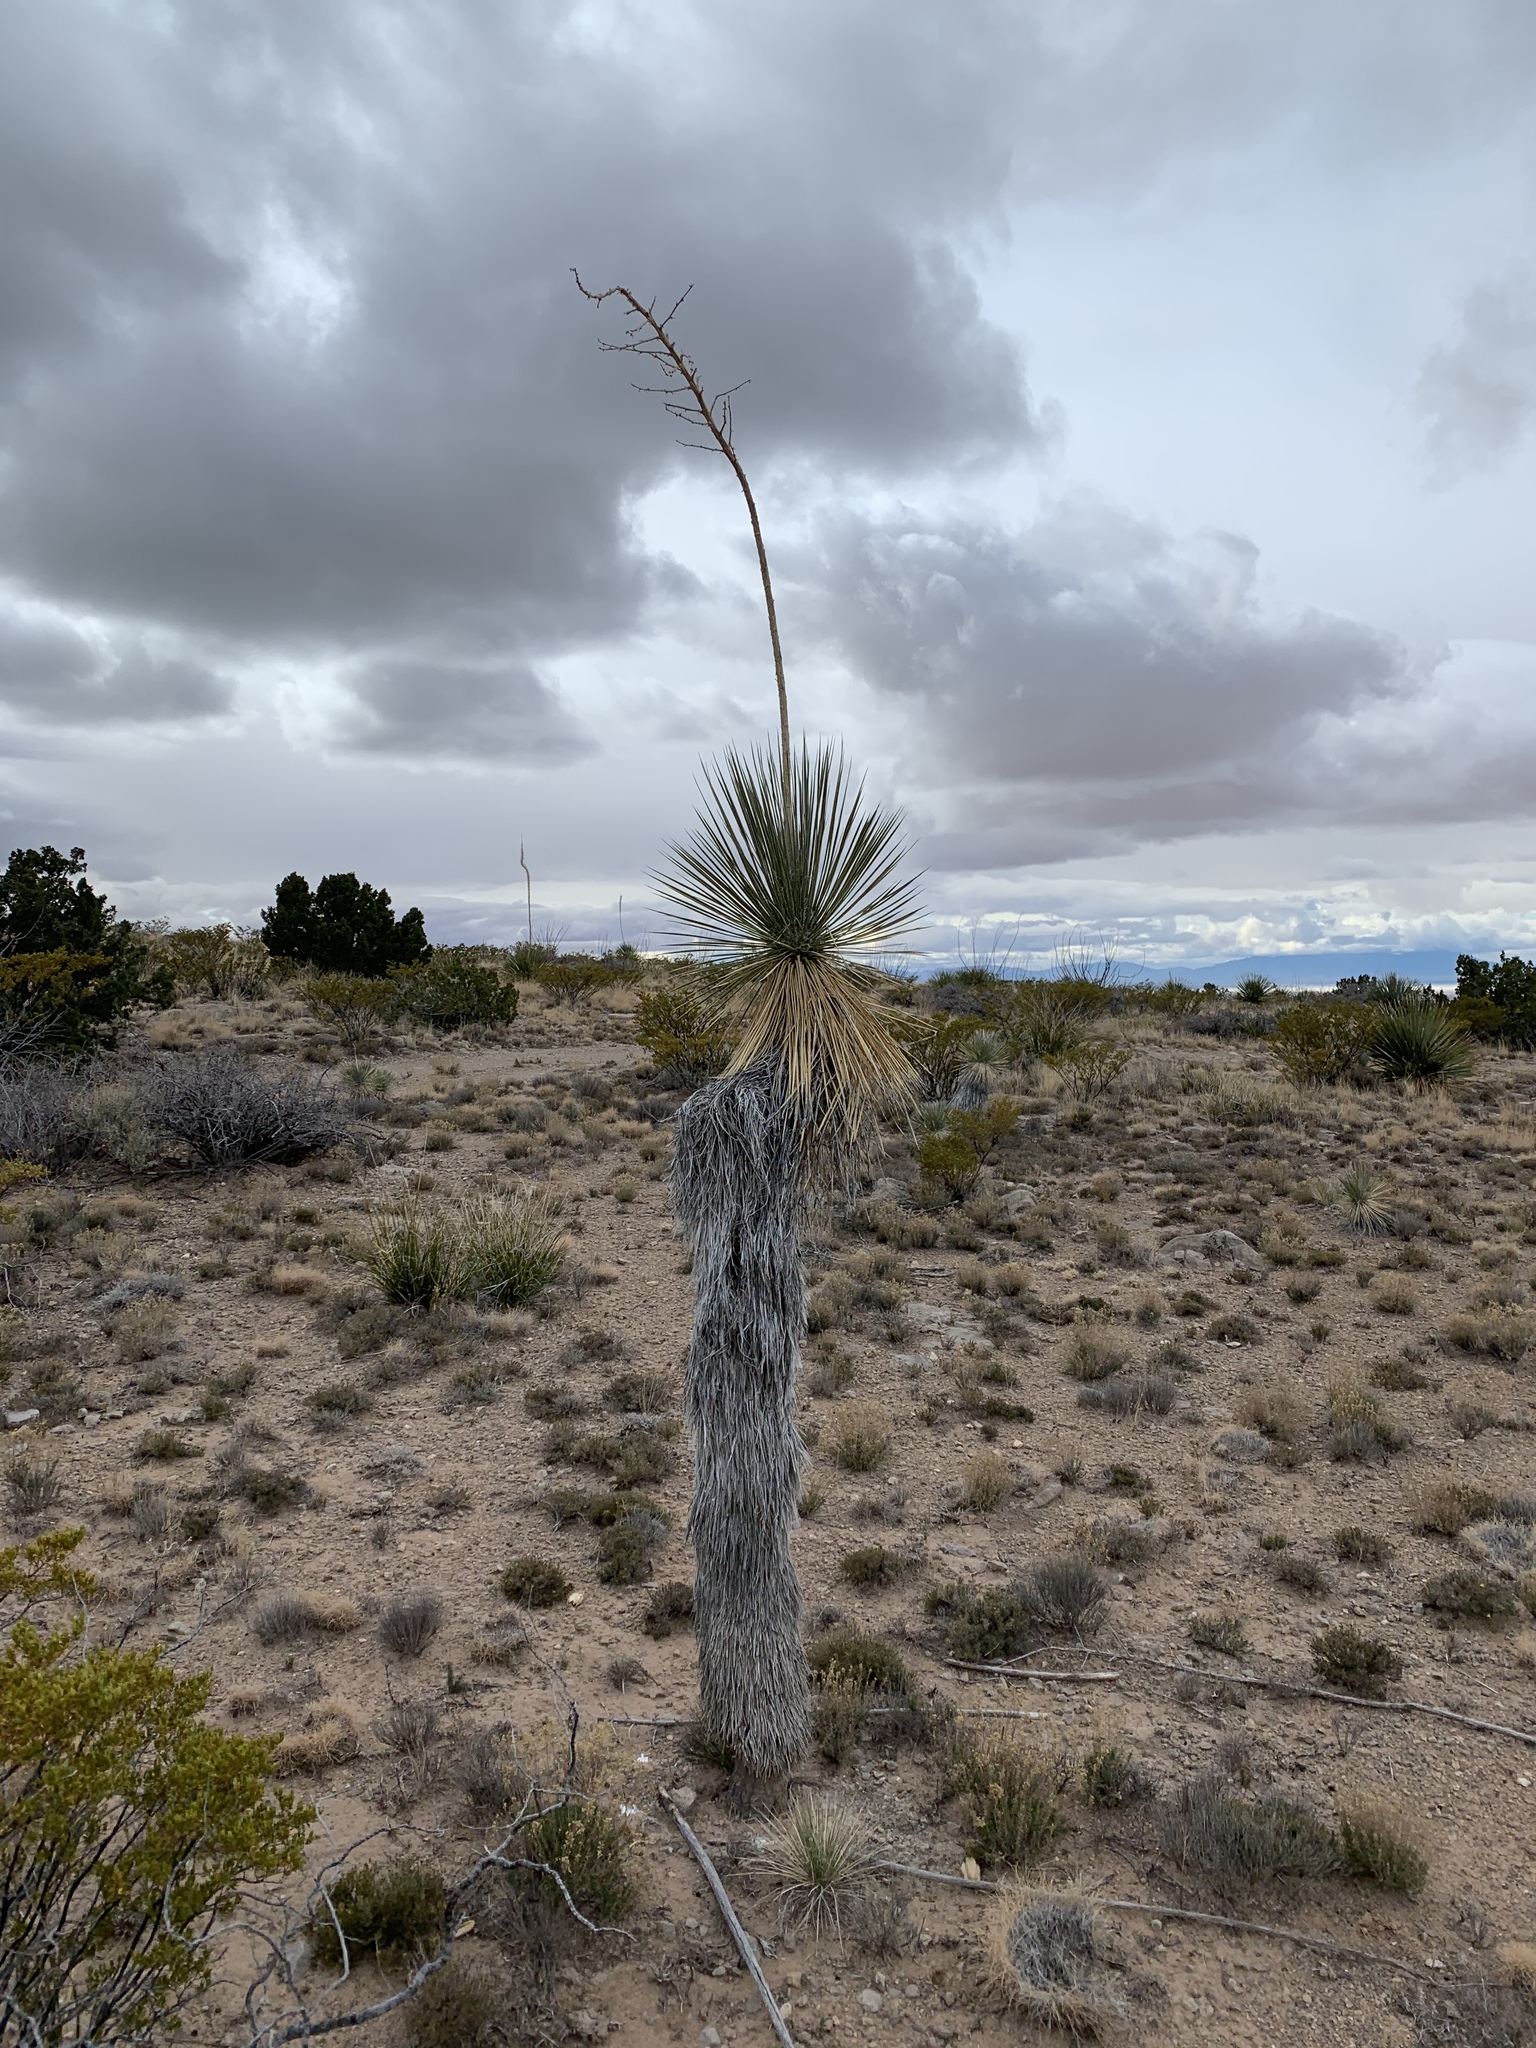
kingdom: Plantae
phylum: Tracheophyta
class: Liliopsida
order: Asparagales
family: Asparagaceae
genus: Yucca
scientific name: Yucca elata
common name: Palmella
